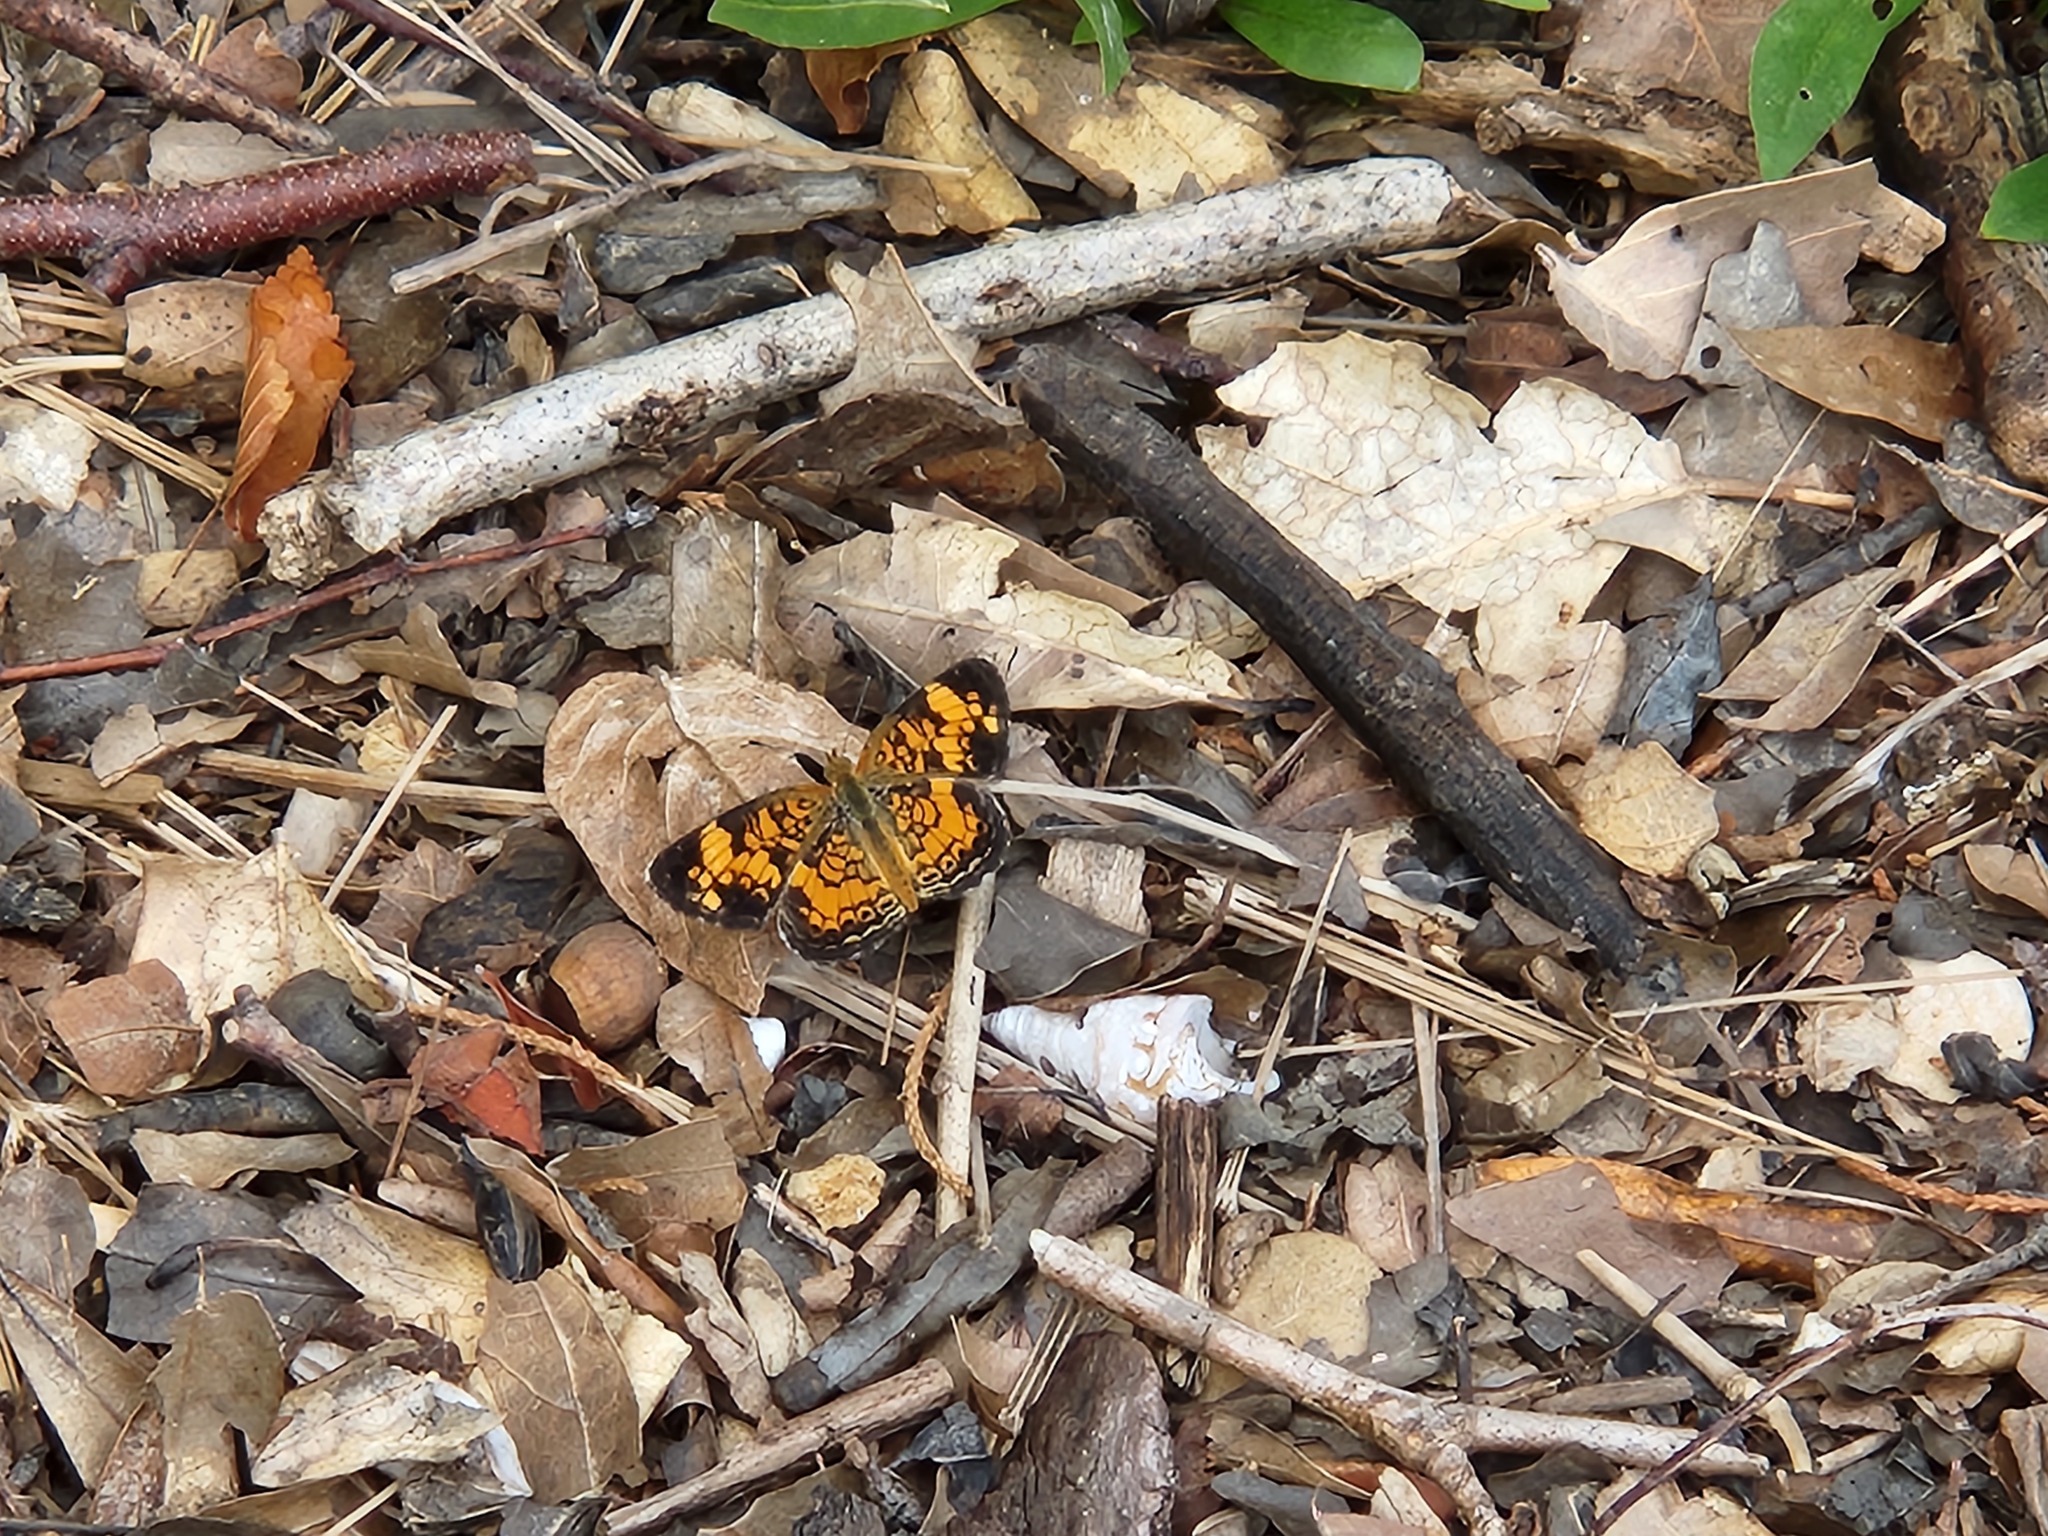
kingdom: Animalia
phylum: Arthropoda
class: Insecta
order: Lepidoptera
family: Nymphalidae
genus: Phyciodes
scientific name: Phyciodes tharos
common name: Pearl crescent
